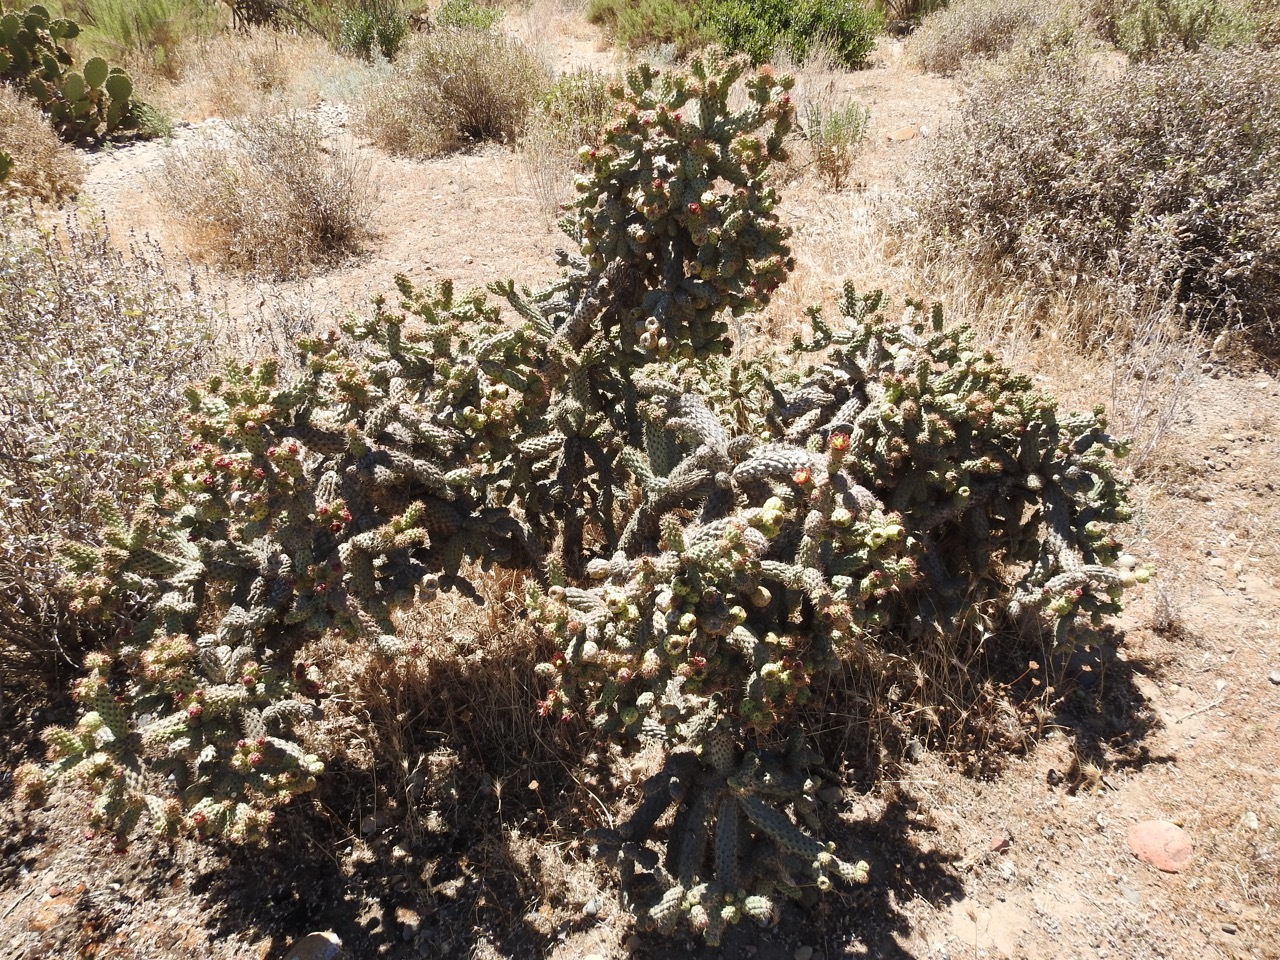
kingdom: Plantae
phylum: Tracheophyta
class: Magnoliopsida
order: Caryophyllales
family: Cactaceae
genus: Cylindropuntia
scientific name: Cylindropuntia alcahes
